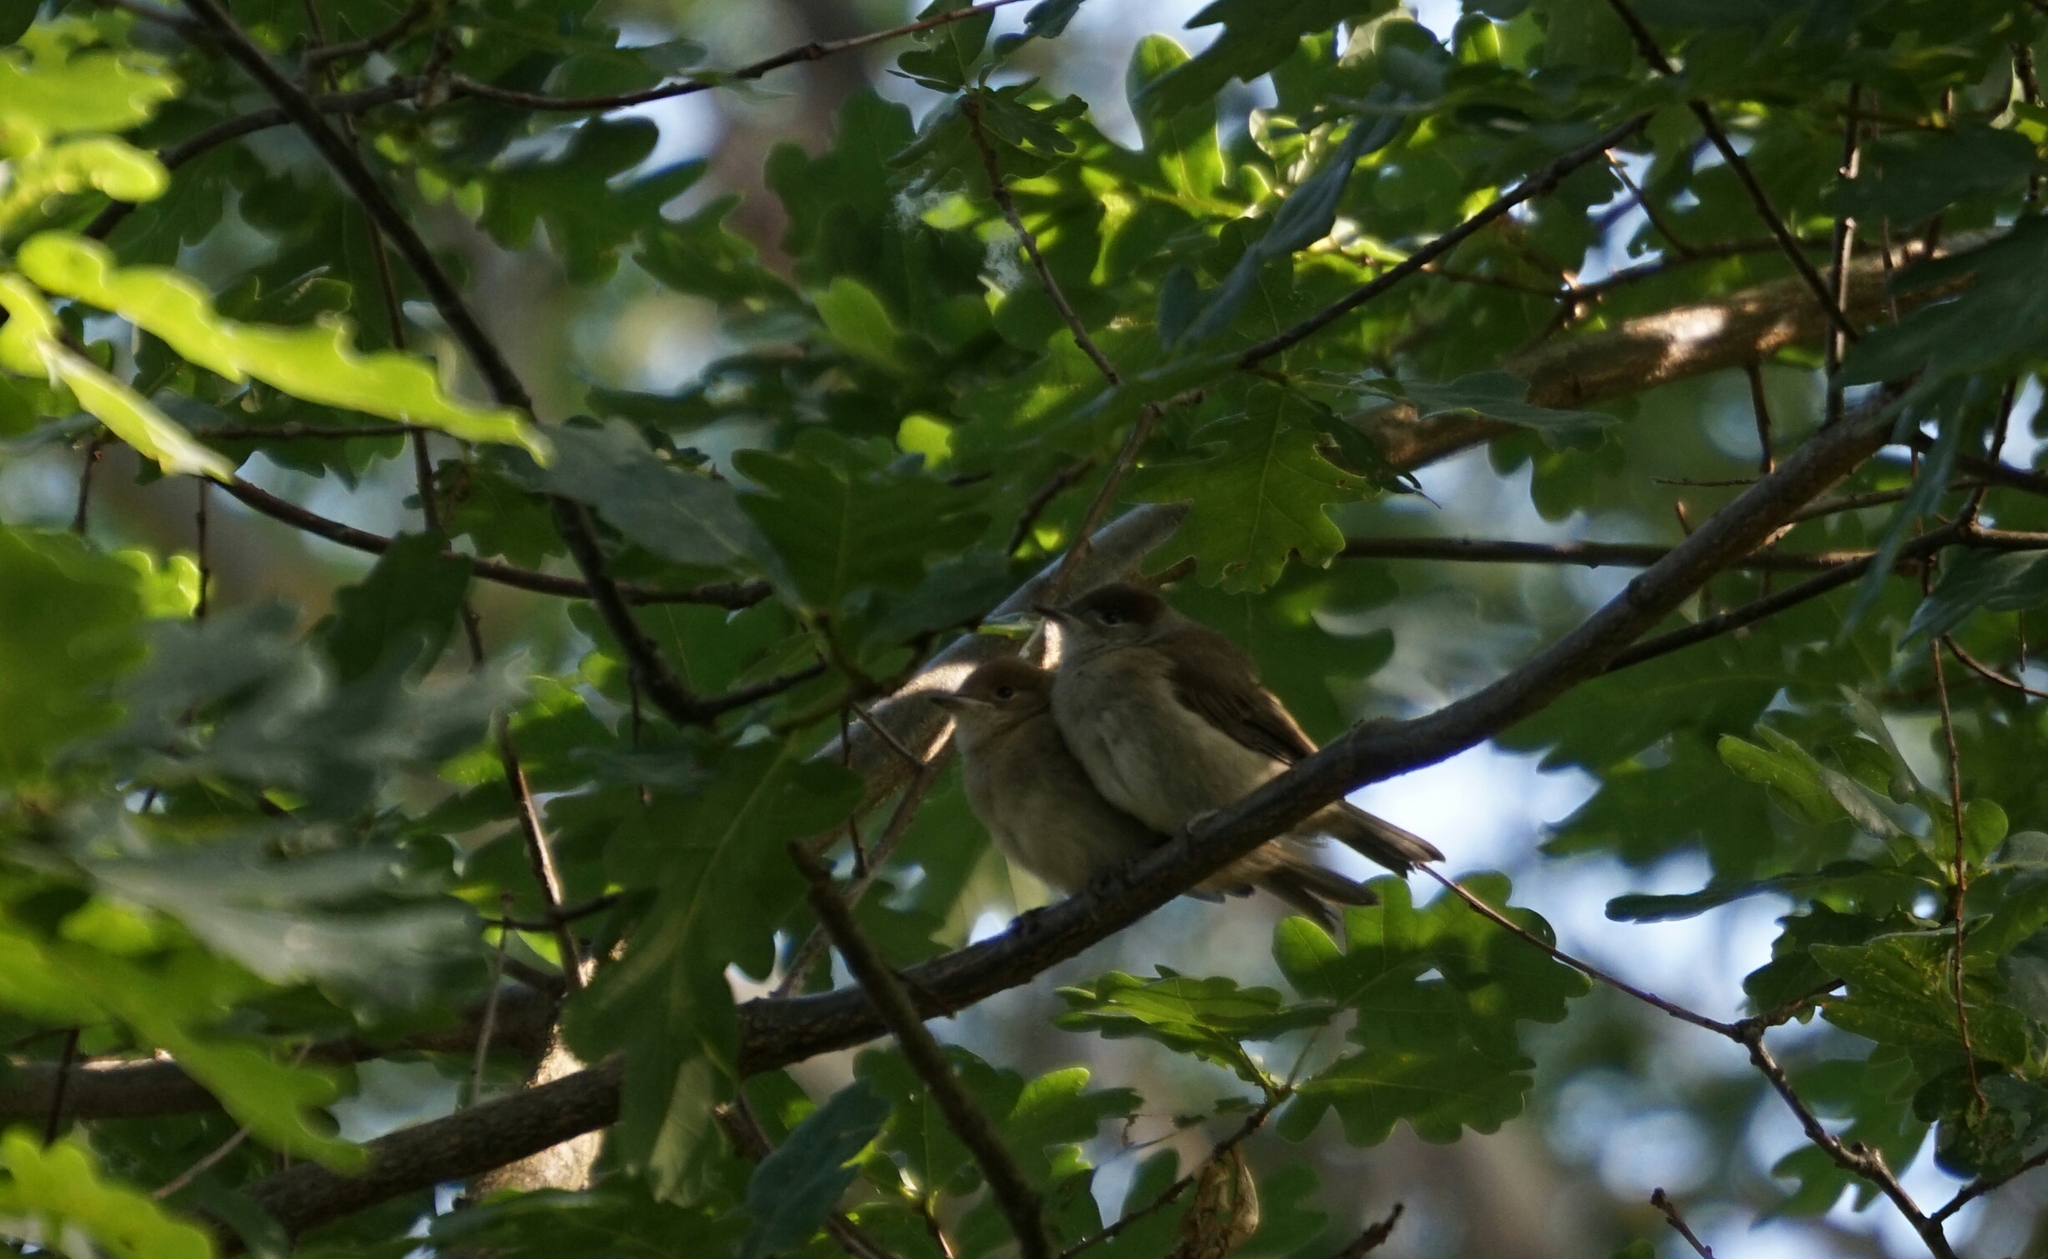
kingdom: Animalia
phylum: Chordata
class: Aves
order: Passeriformes
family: Sylviidae
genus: Sylvia
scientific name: Sylvia atricapilla
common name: Eurasian blackcap
